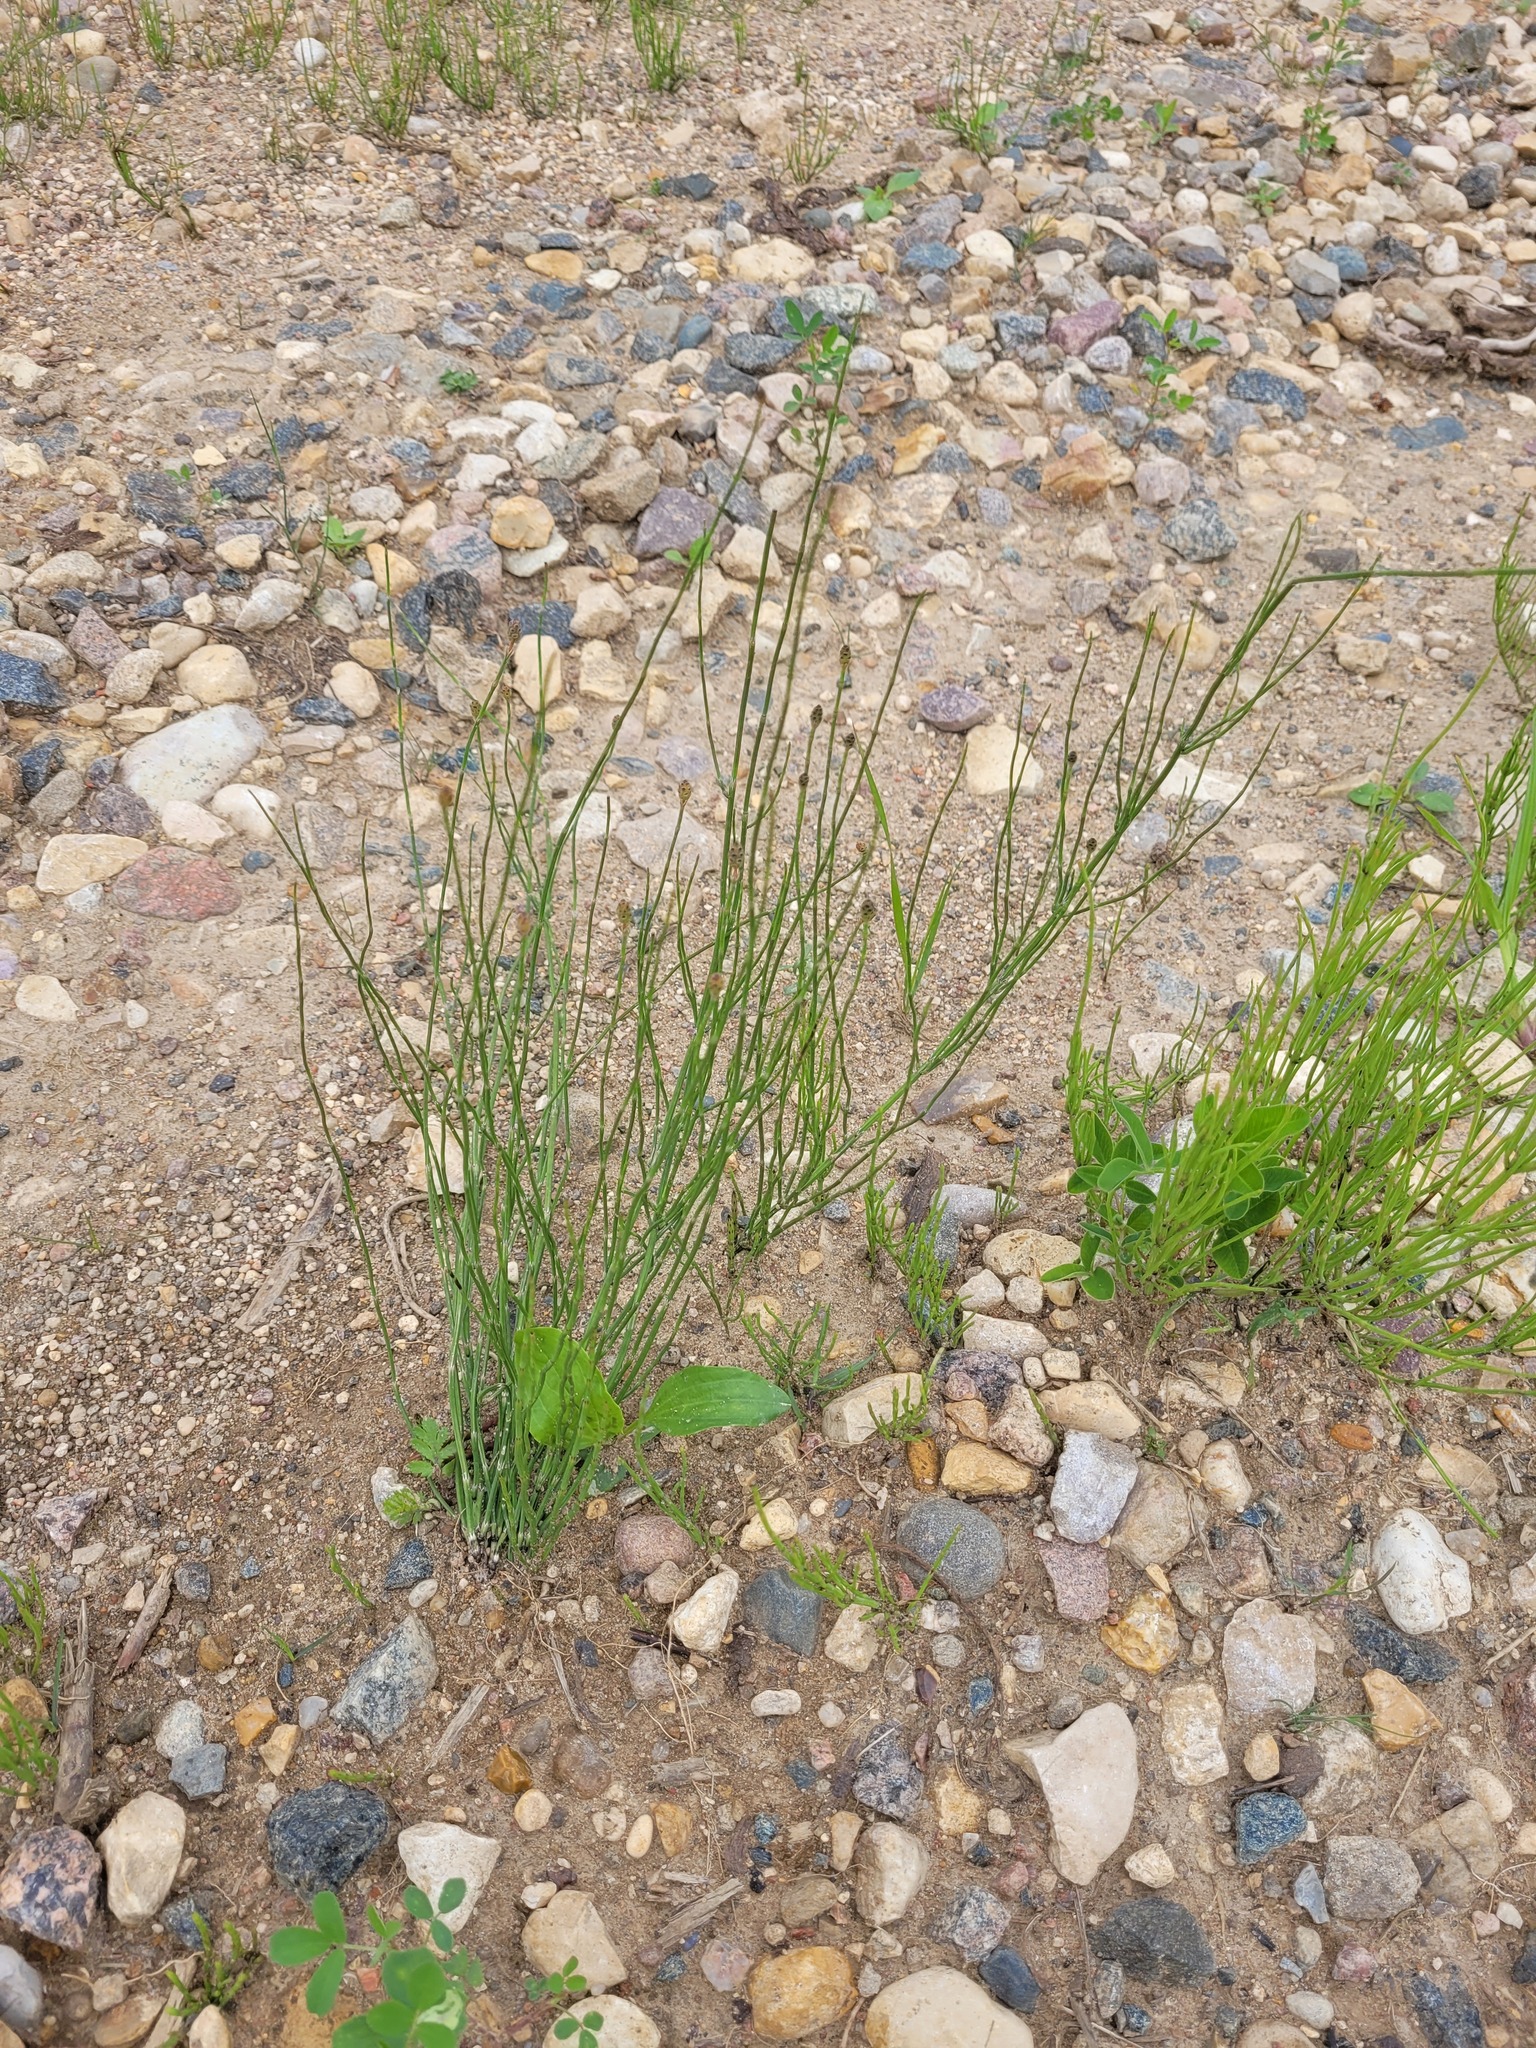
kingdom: Plantae
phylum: Tracheophyta
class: Polypodiopsida
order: Equisetales
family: Equisetaceae
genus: Equisetum
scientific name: Equisetum palustre
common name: Marsh horsetail
